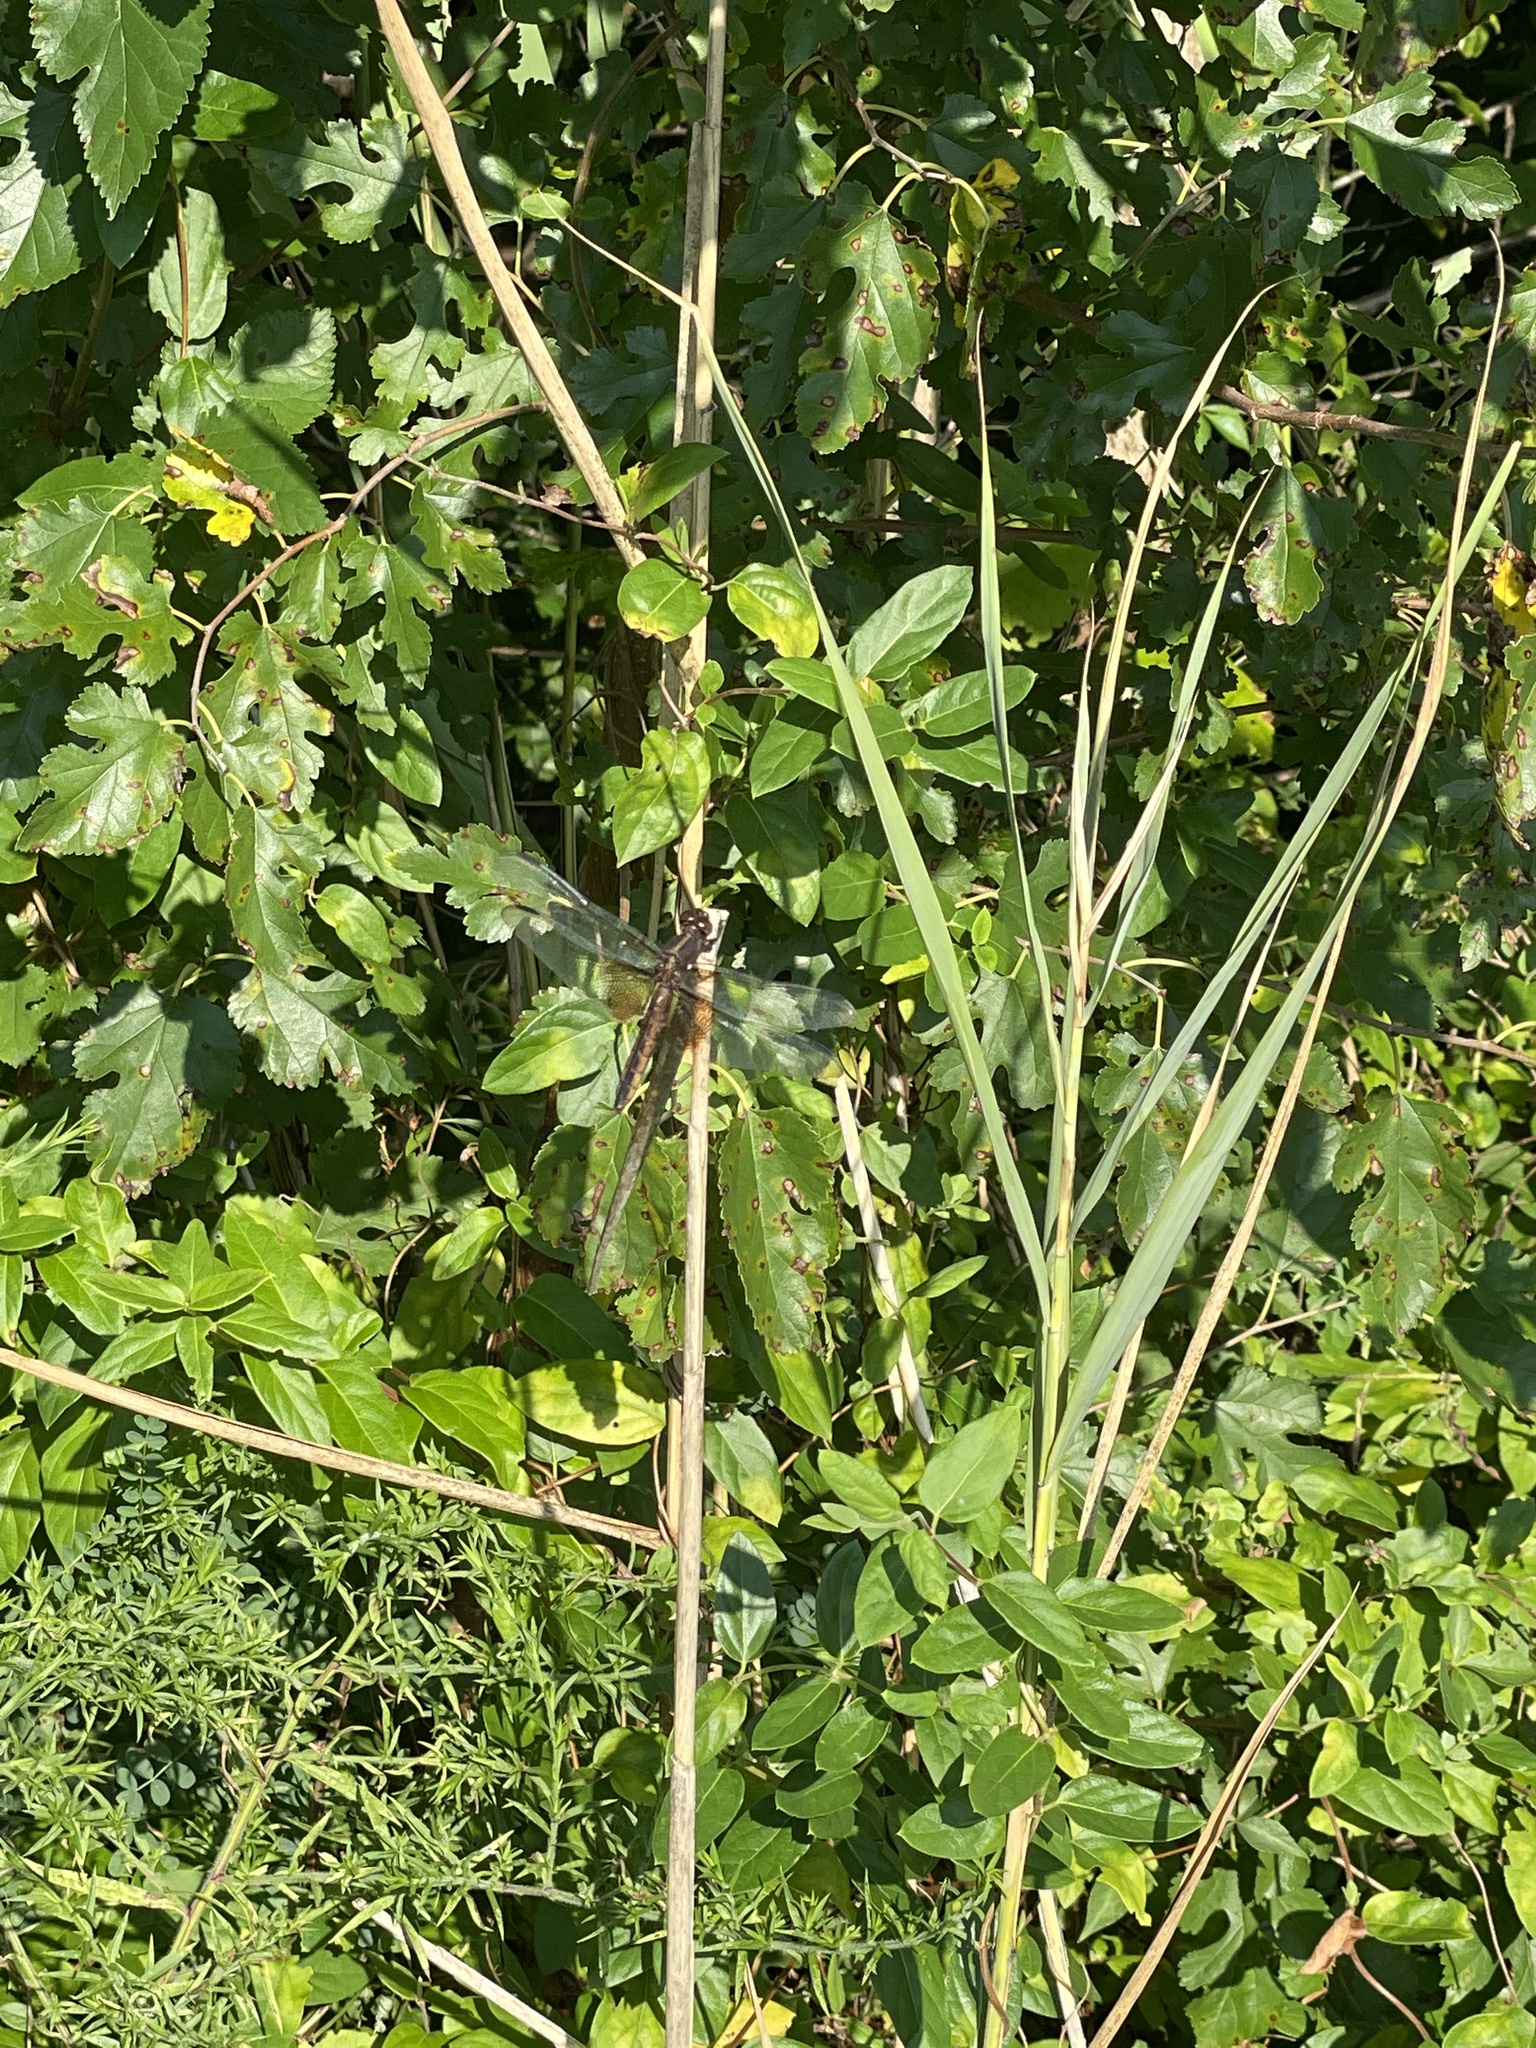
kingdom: Animalia
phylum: Arthropoda
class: Insecta
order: Odonata
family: Libellulidae
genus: Libellula
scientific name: Libellula luctuosa
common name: Widow skimmer
